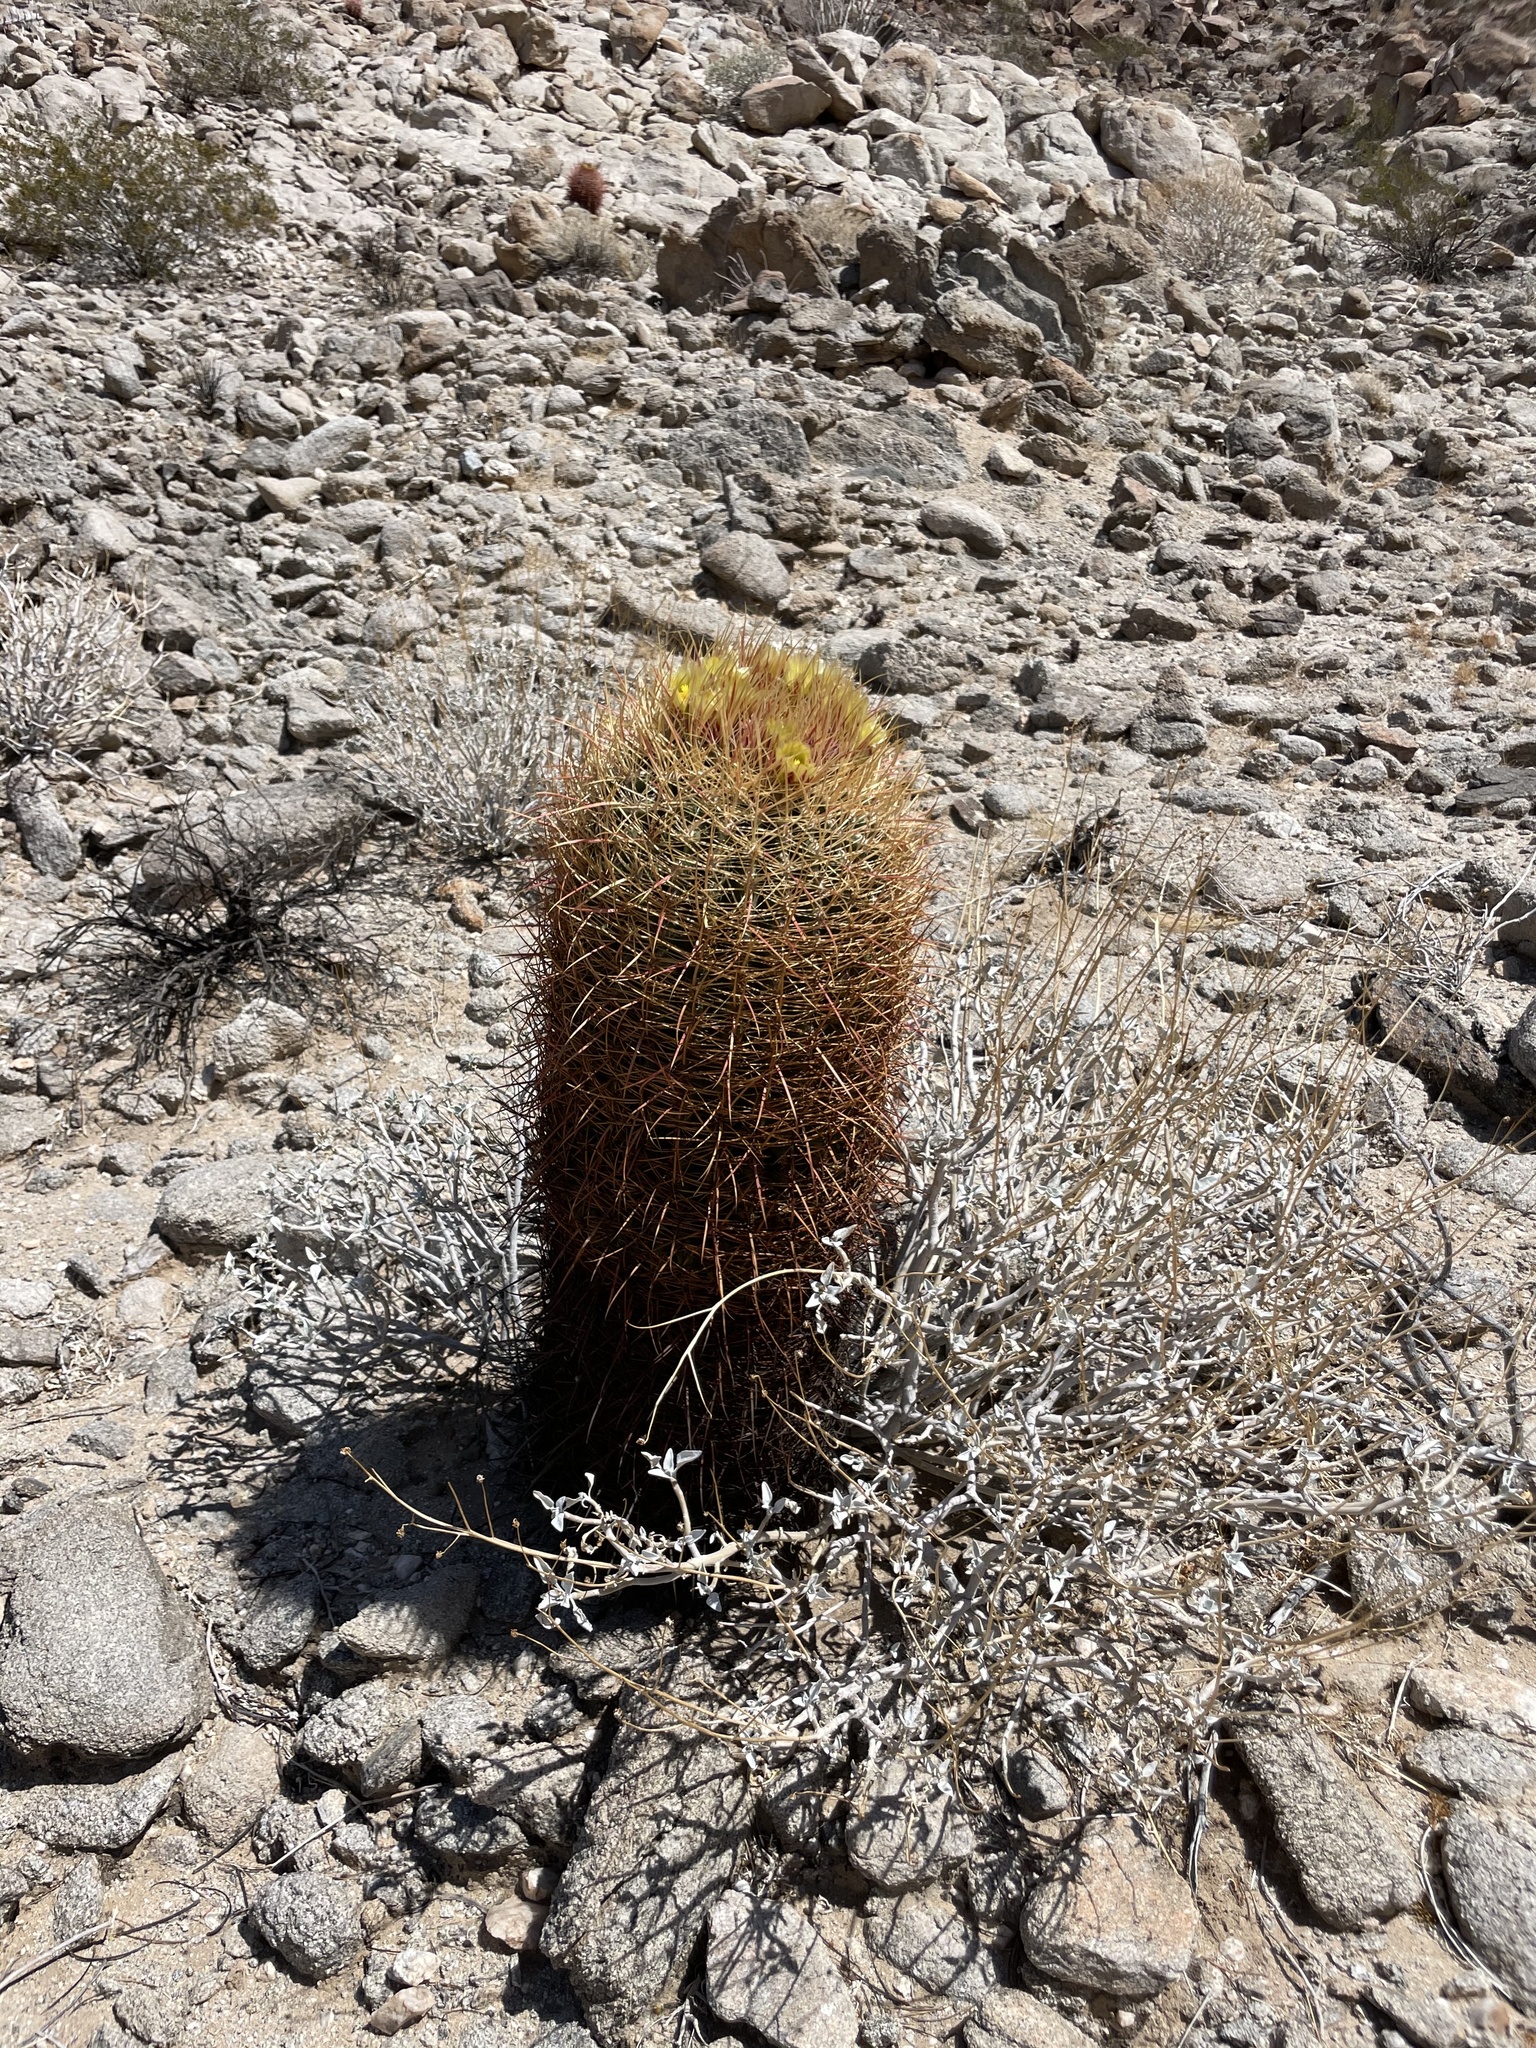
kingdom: Plantae
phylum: Tracheophyta
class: Magnoliopsida
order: Caryophyllales
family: Cactaceae
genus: Ferocactus
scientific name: Ferocactus cylindraceus
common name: California barrel cactus
